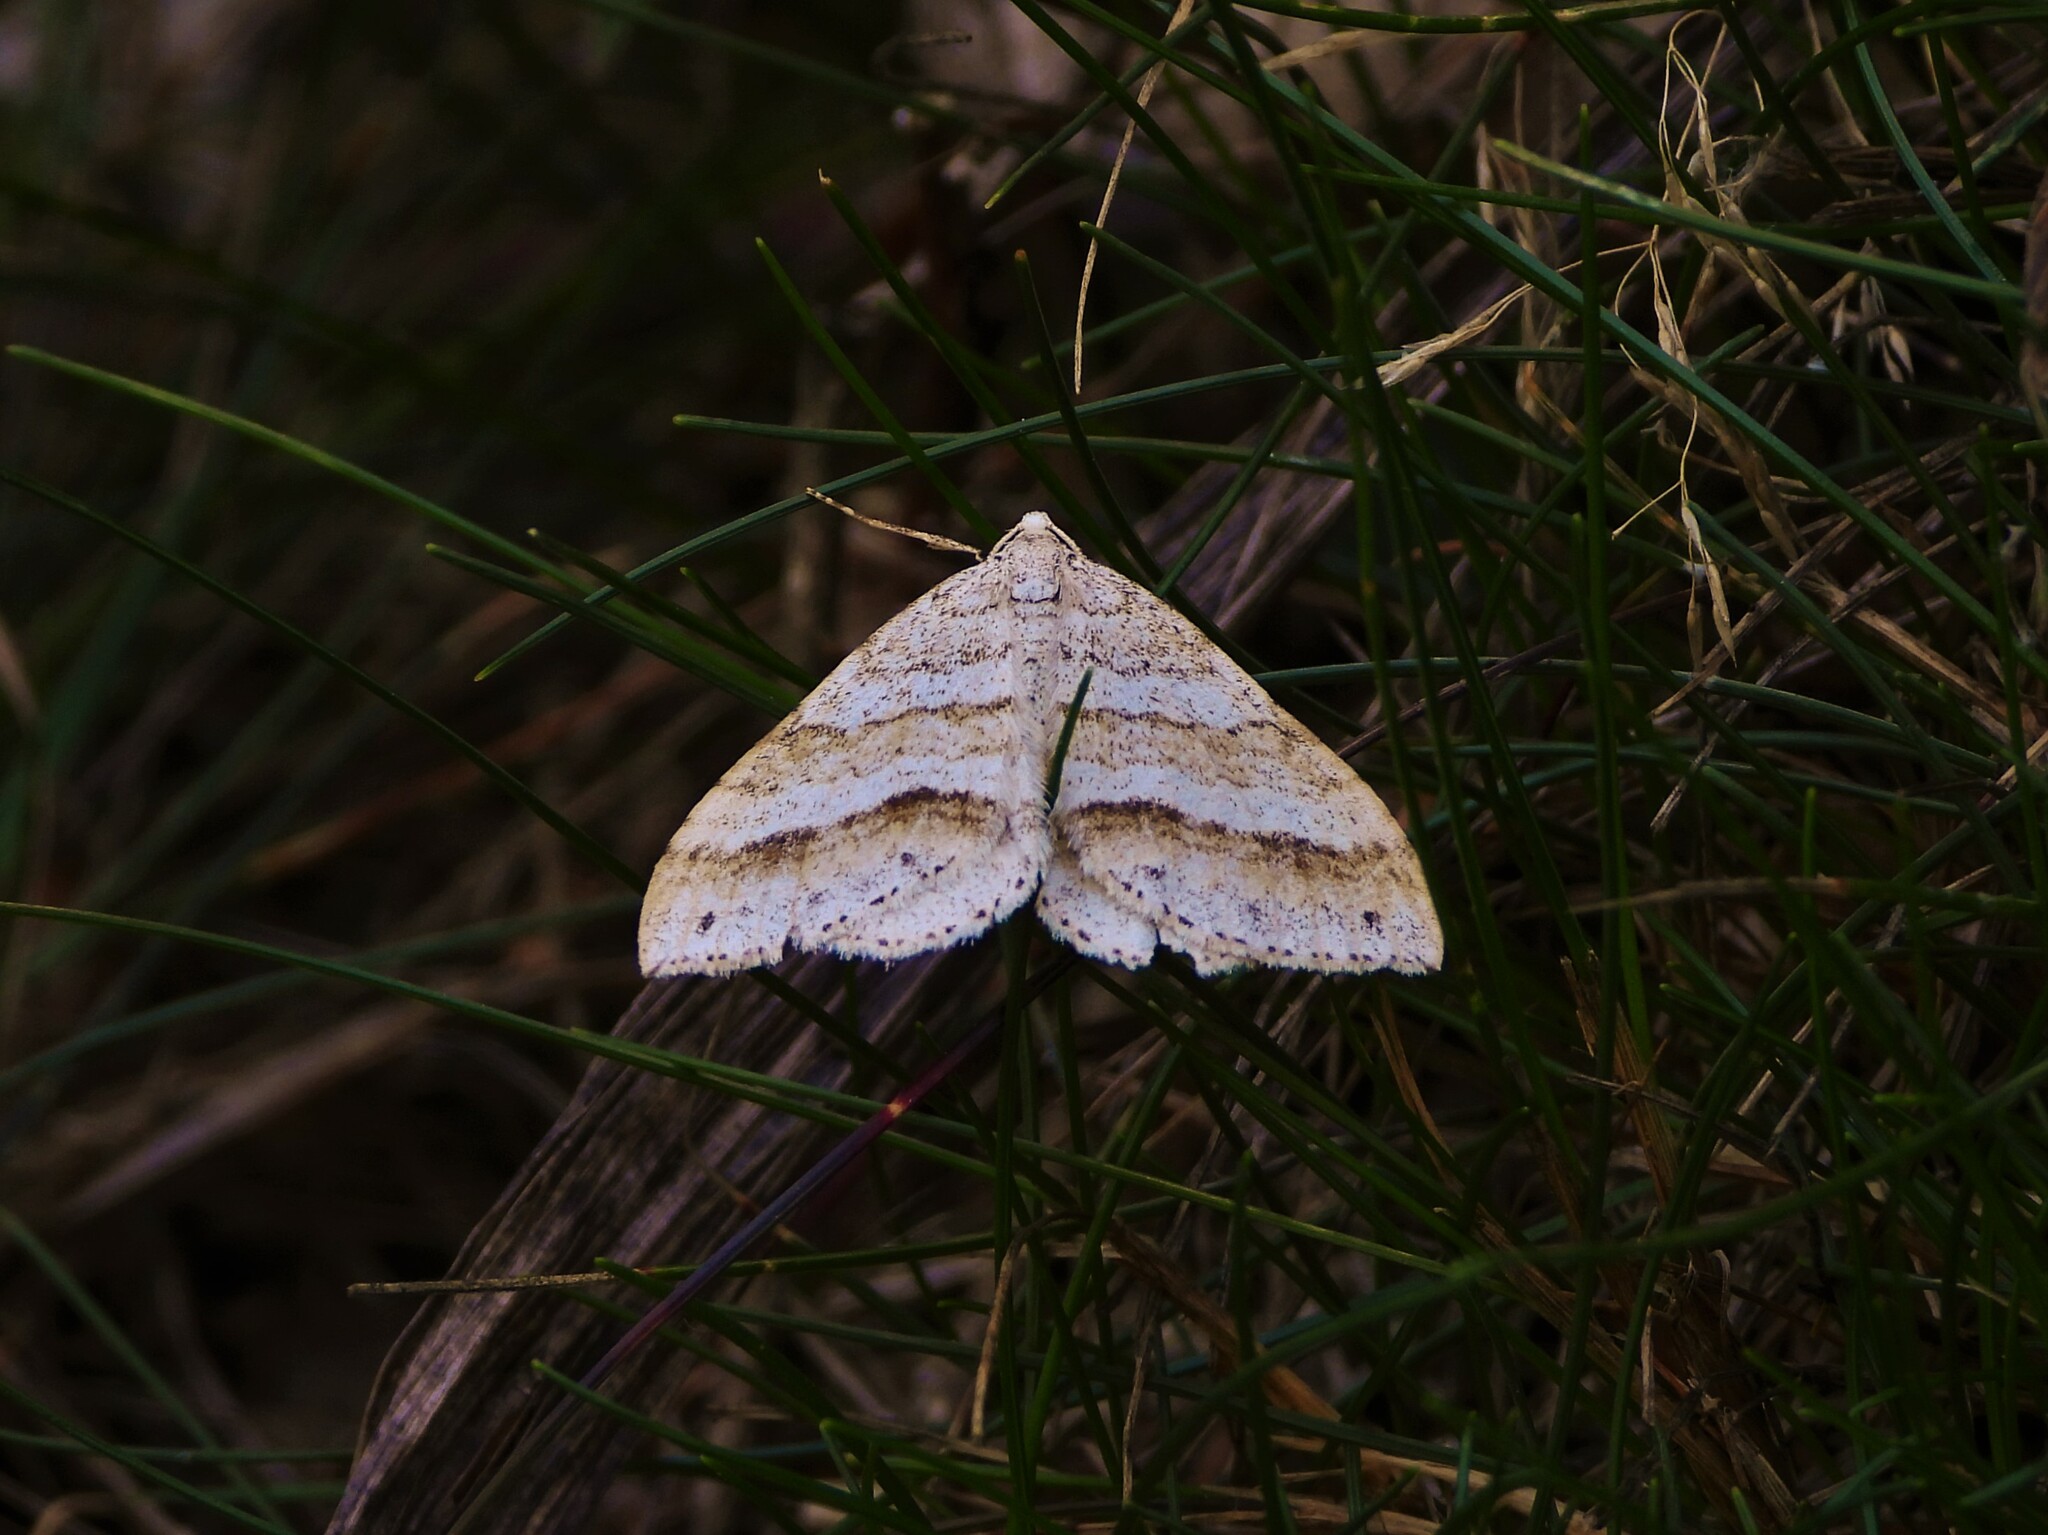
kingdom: Animalia
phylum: Arthropoda
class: Insecta
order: Lepidoptera
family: Geometridae
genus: Perizoma
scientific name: Perizoma parallelolineata
